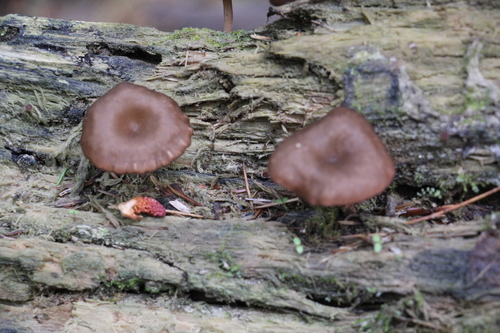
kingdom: Fungi
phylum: Basidiomycota
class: Agaricomycetes
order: Agaricales
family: Hygrophoraceae
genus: Arrhenia
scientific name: Arrhenia discorosea
